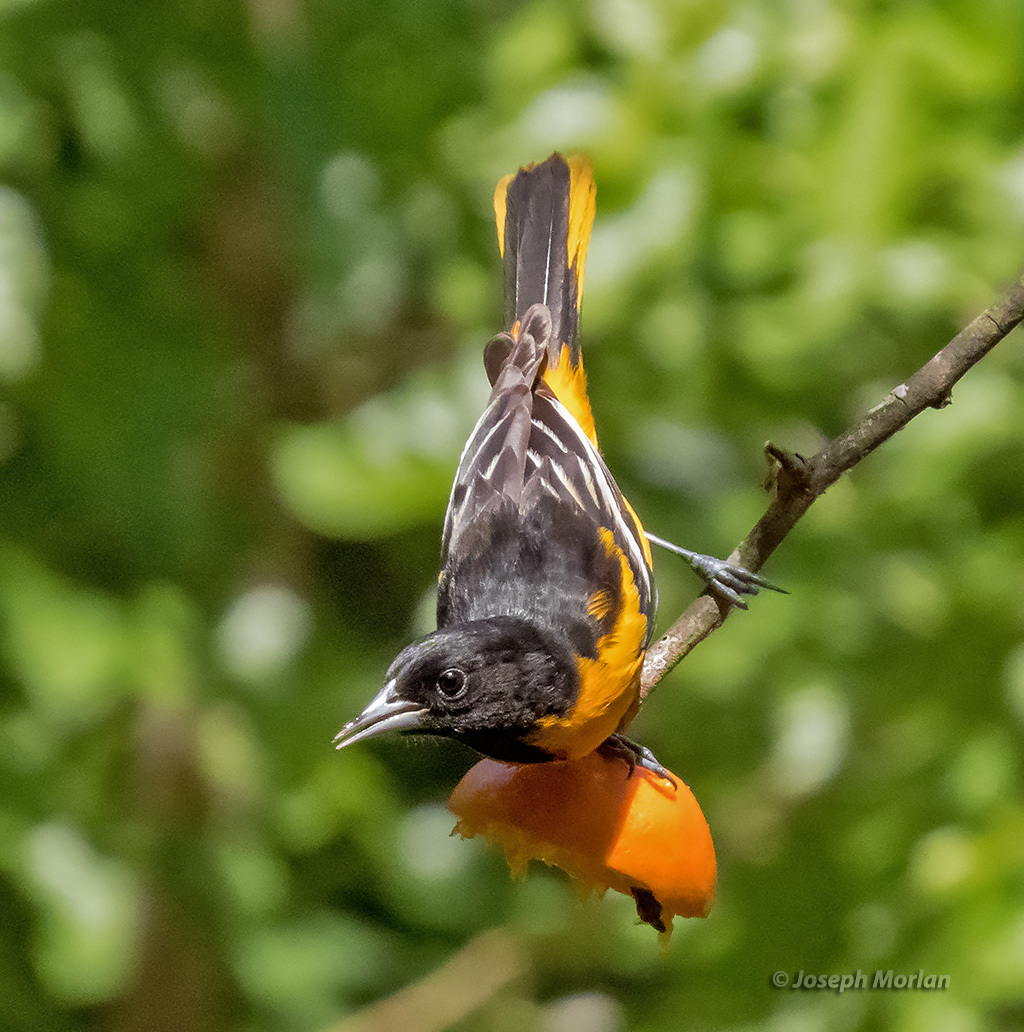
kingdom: Animalia
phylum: Chordata
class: Aves
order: Passeriformes
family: Icteridae
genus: Icterus
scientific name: Icterus galbula
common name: Baltimore oriole
